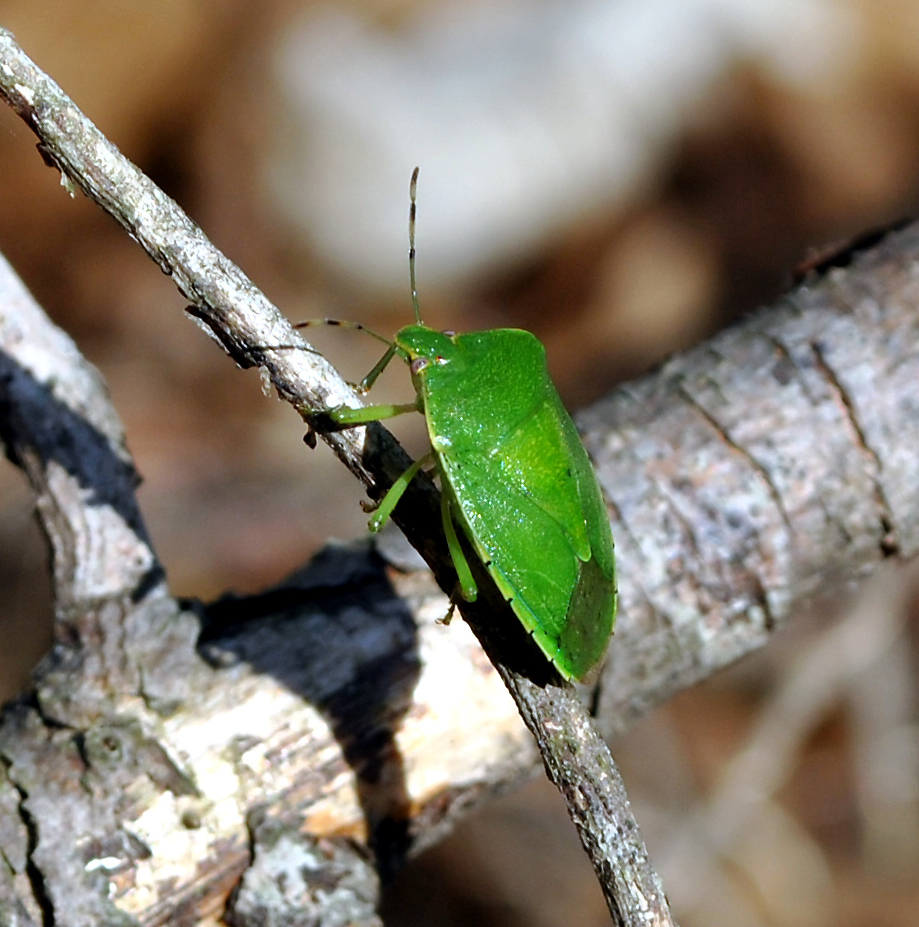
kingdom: Animalia
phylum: Arthropoda
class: Insecta
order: Hemiptera
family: Pentatomidae
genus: Chinavia
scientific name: Chinavia hilaris
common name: Green stink bug
